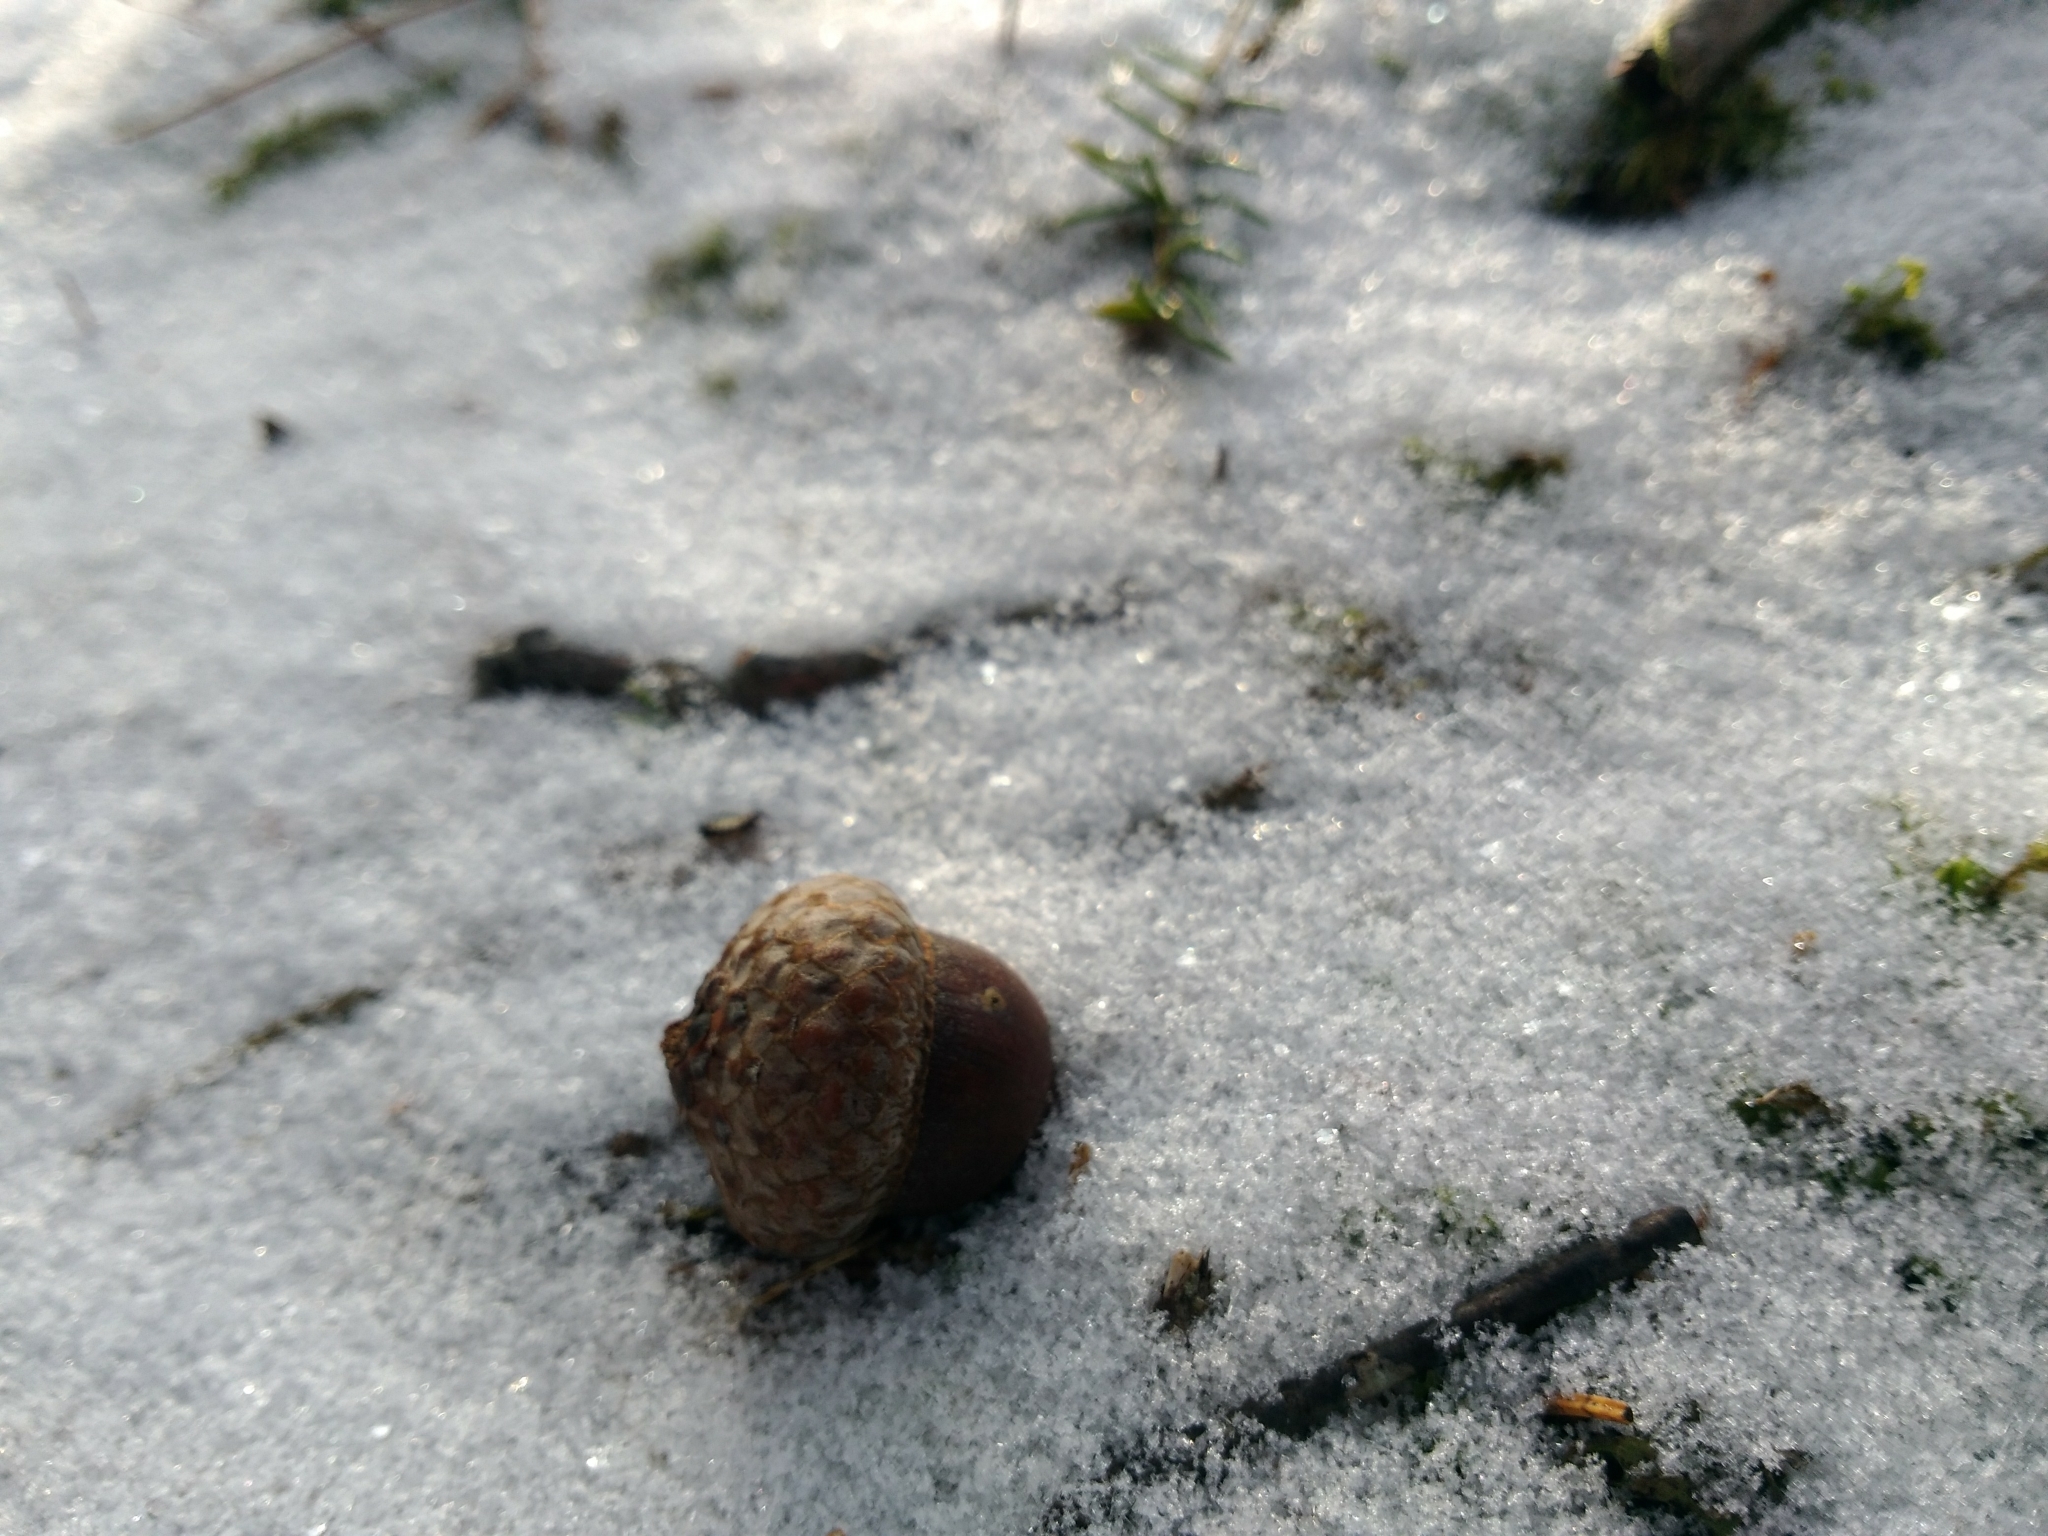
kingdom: Plantae
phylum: Tracheophyta
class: Magnoliopsida
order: Fagales
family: Fagaceae
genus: Quercus
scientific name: Quercus rubra
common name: Red oak
